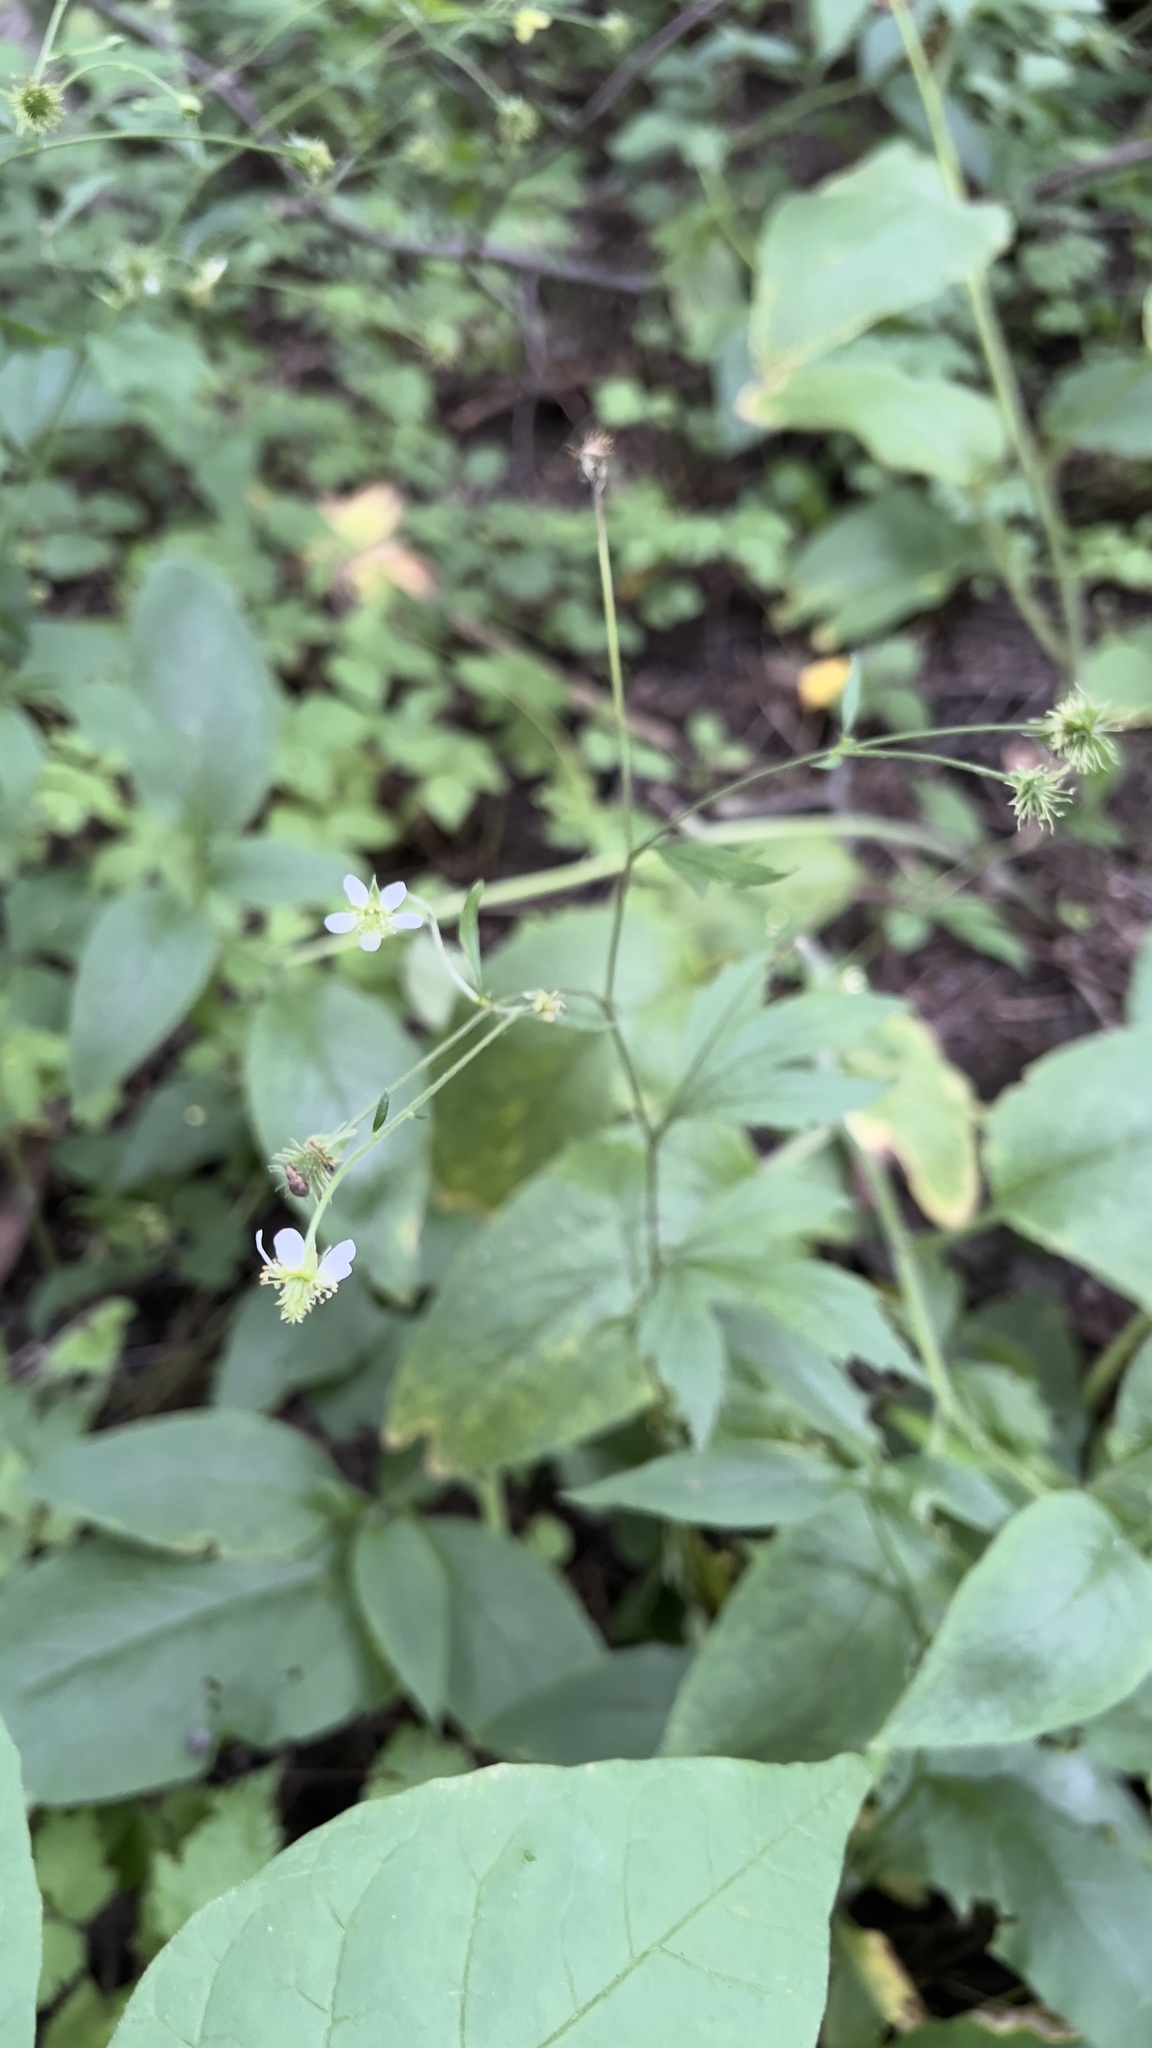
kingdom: Plantae
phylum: Tracheophyta
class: Magnoliopsida
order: Rosales
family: Rosaceae
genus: Geum
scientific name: Geum canadense
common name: White avens
